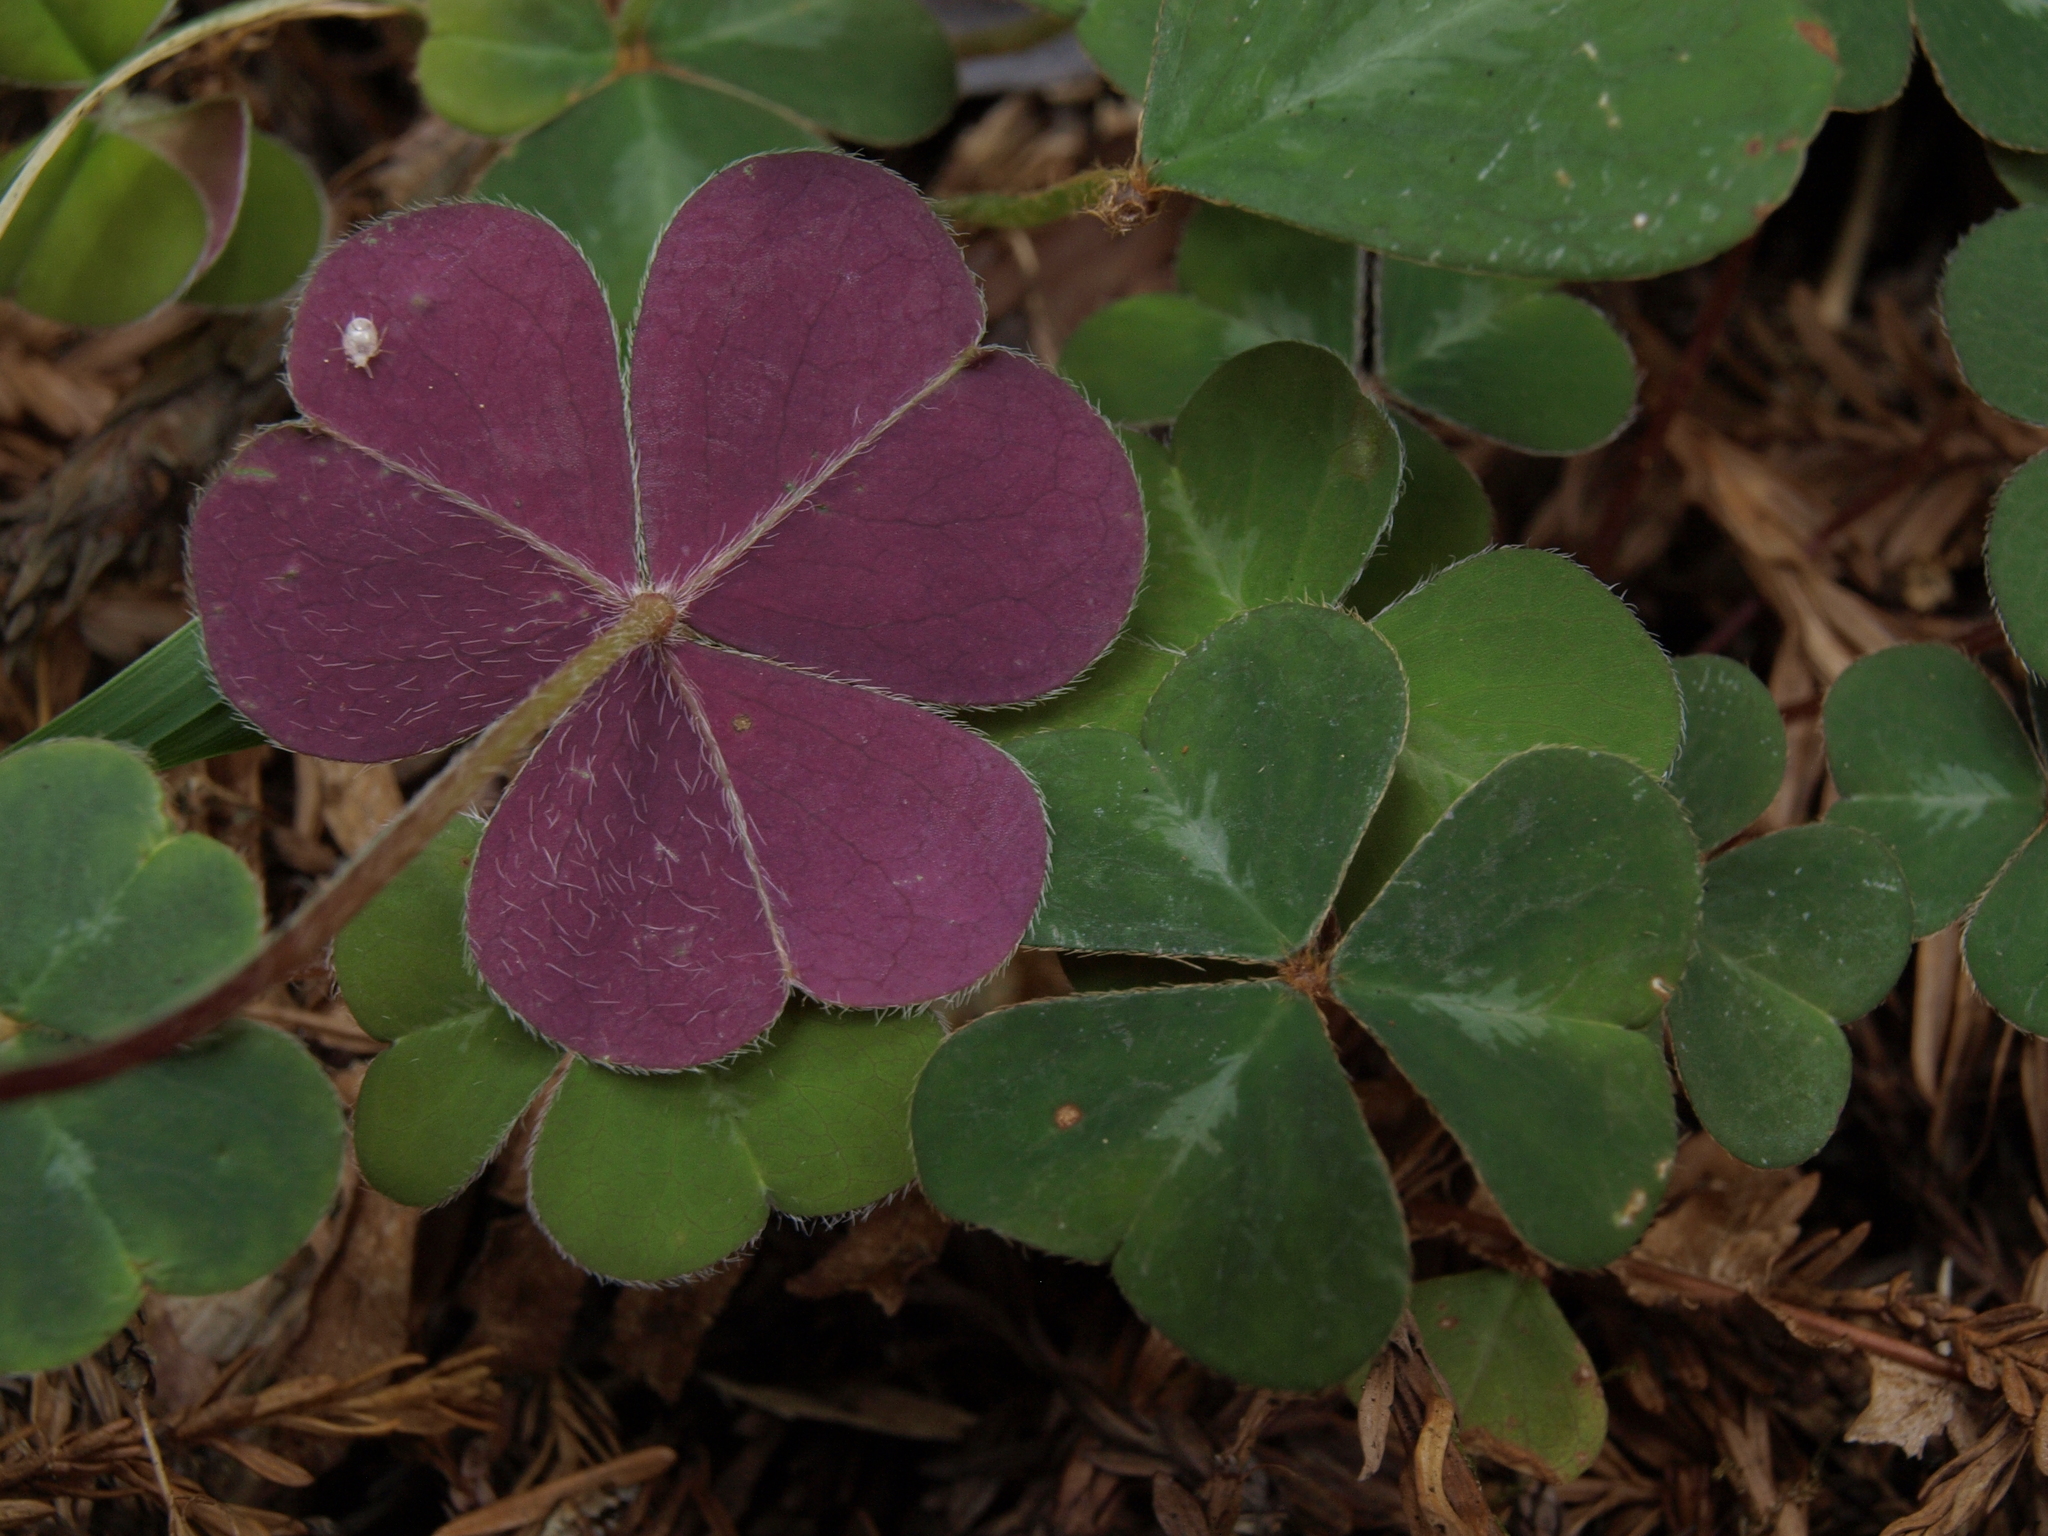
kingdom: Plantae
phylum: Tracheophyta
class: Magnoliopsida
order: Oxalidales
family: Oxalidaceae
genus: Oxalis
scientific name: Oxalis oregana
